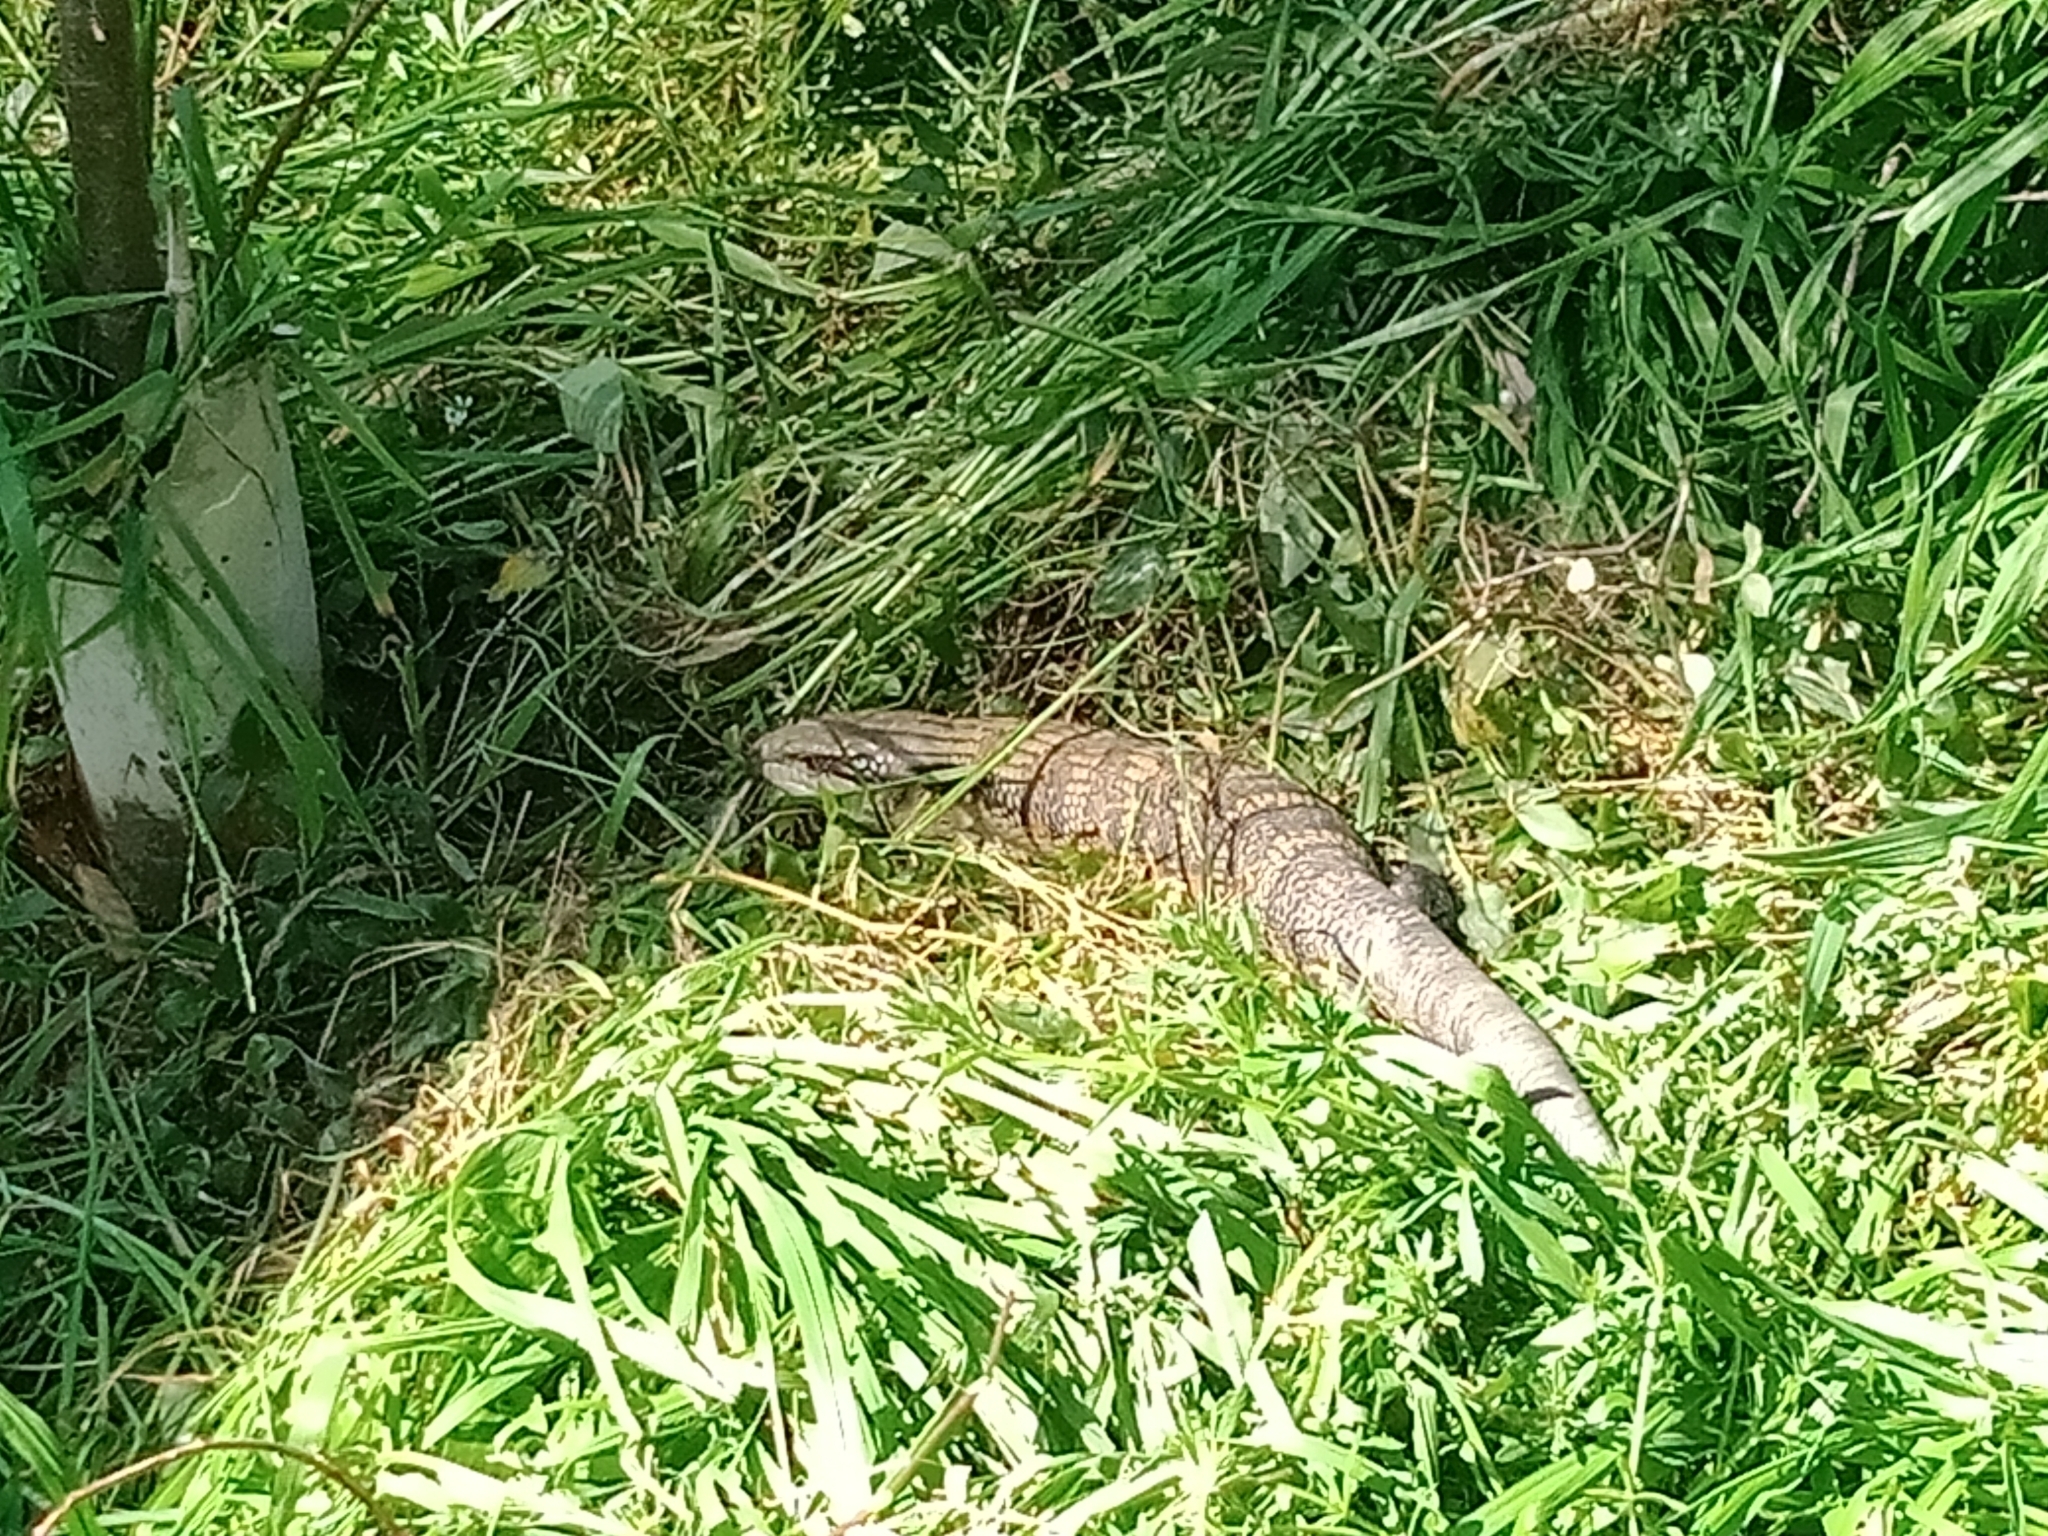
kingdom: Animalia
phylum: Chordata
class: Squamata
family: Scincidae
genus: Tiliqua
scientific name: Tiliqua scincoides
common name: Common bluetongue
